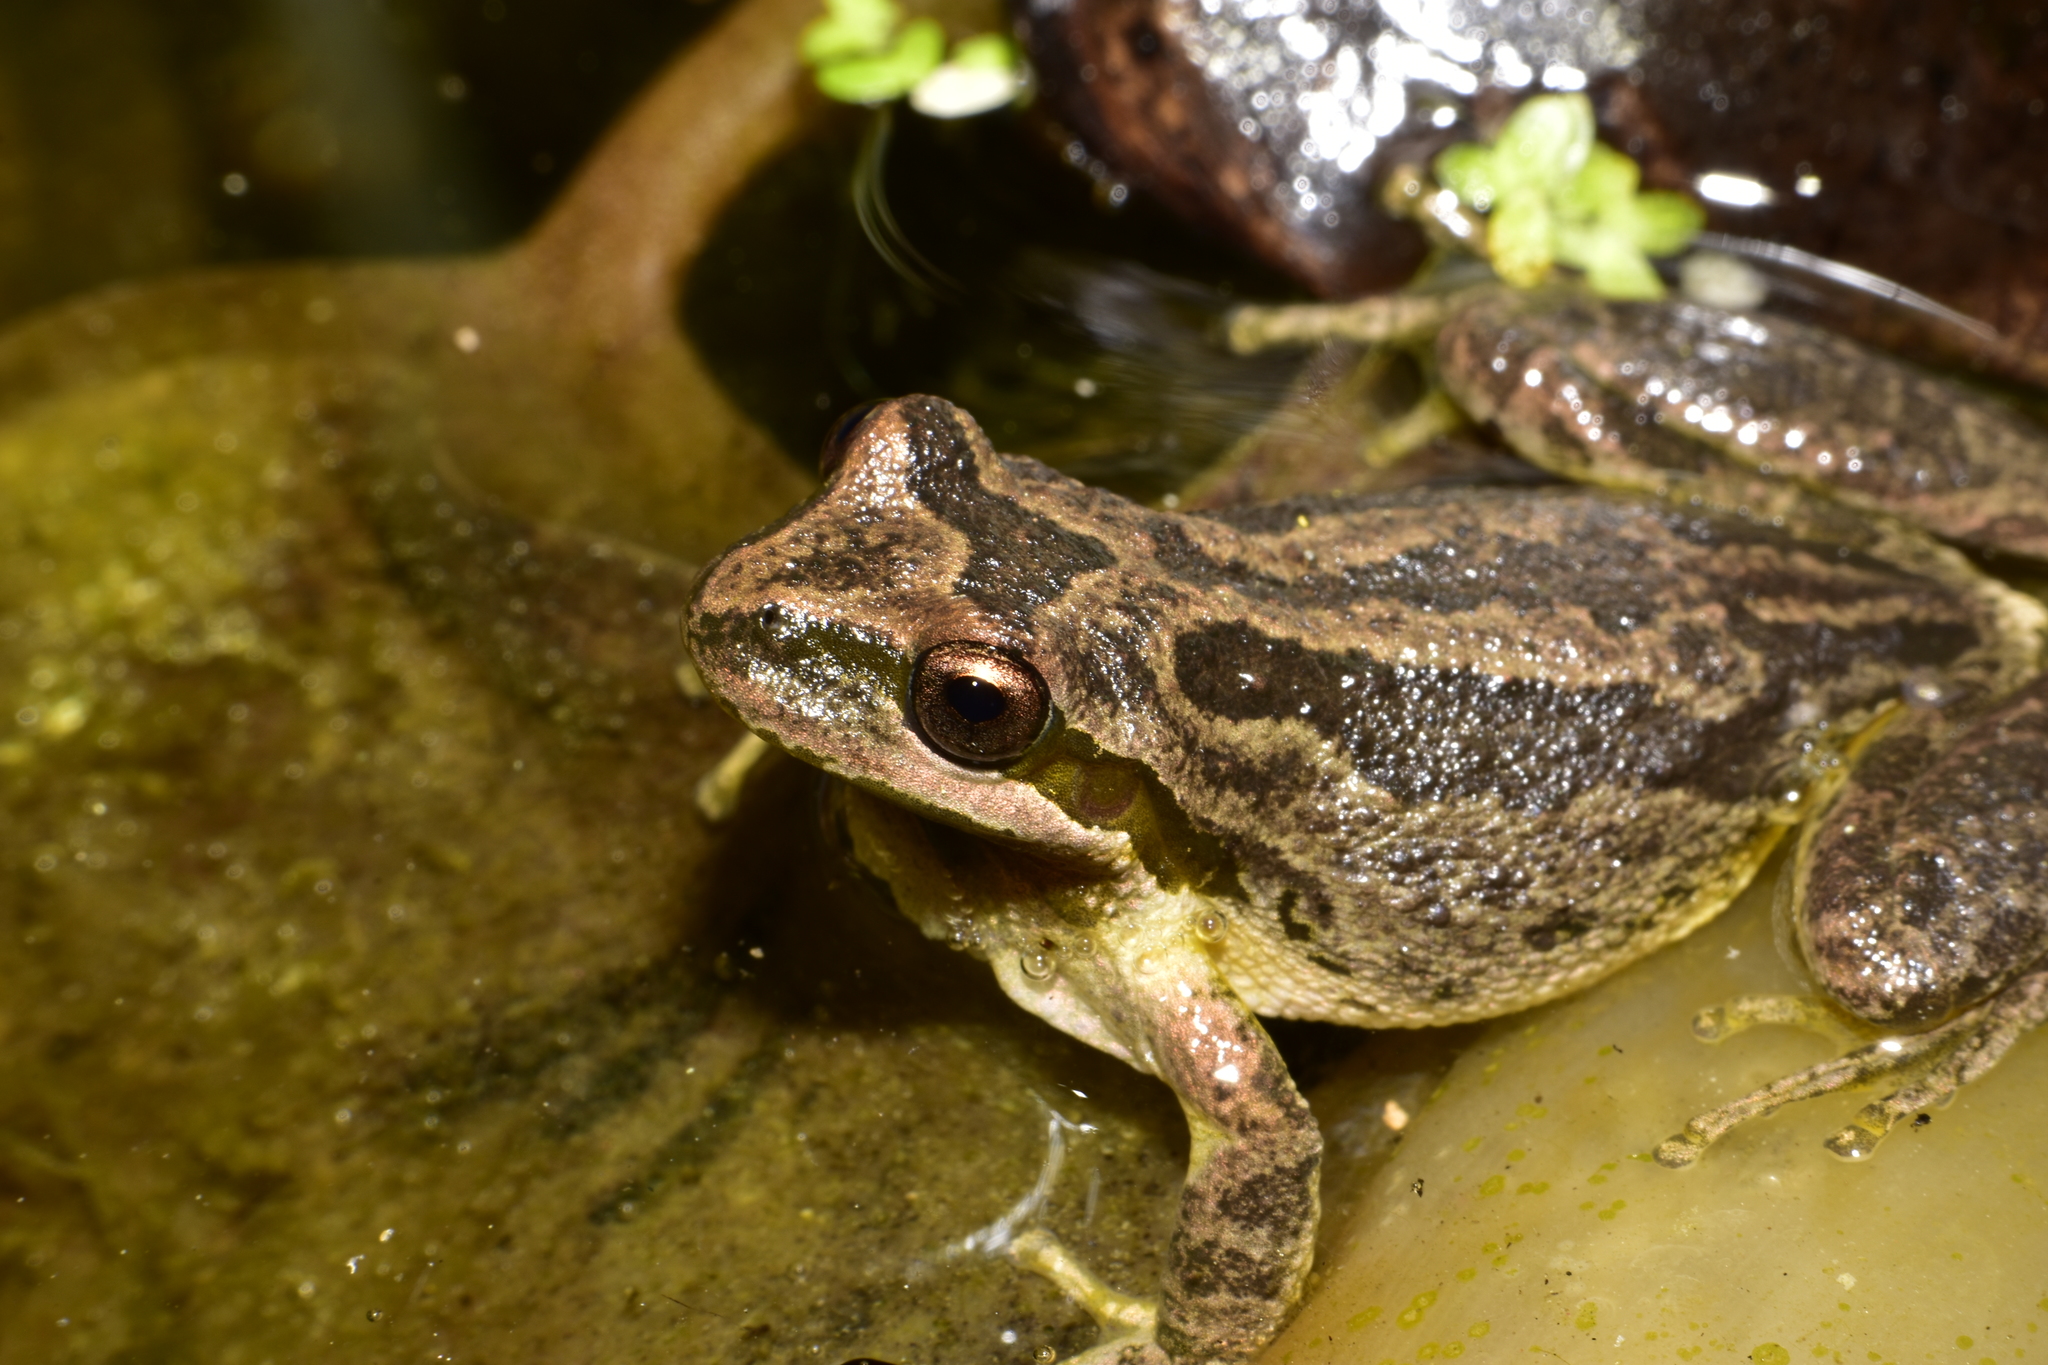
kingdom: Animalia
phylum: Chordata
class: Amphibia
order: Anura
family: Hylidae
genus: Pseudacris
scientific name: Pseudacris regilla
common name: Pacific chorus frog
